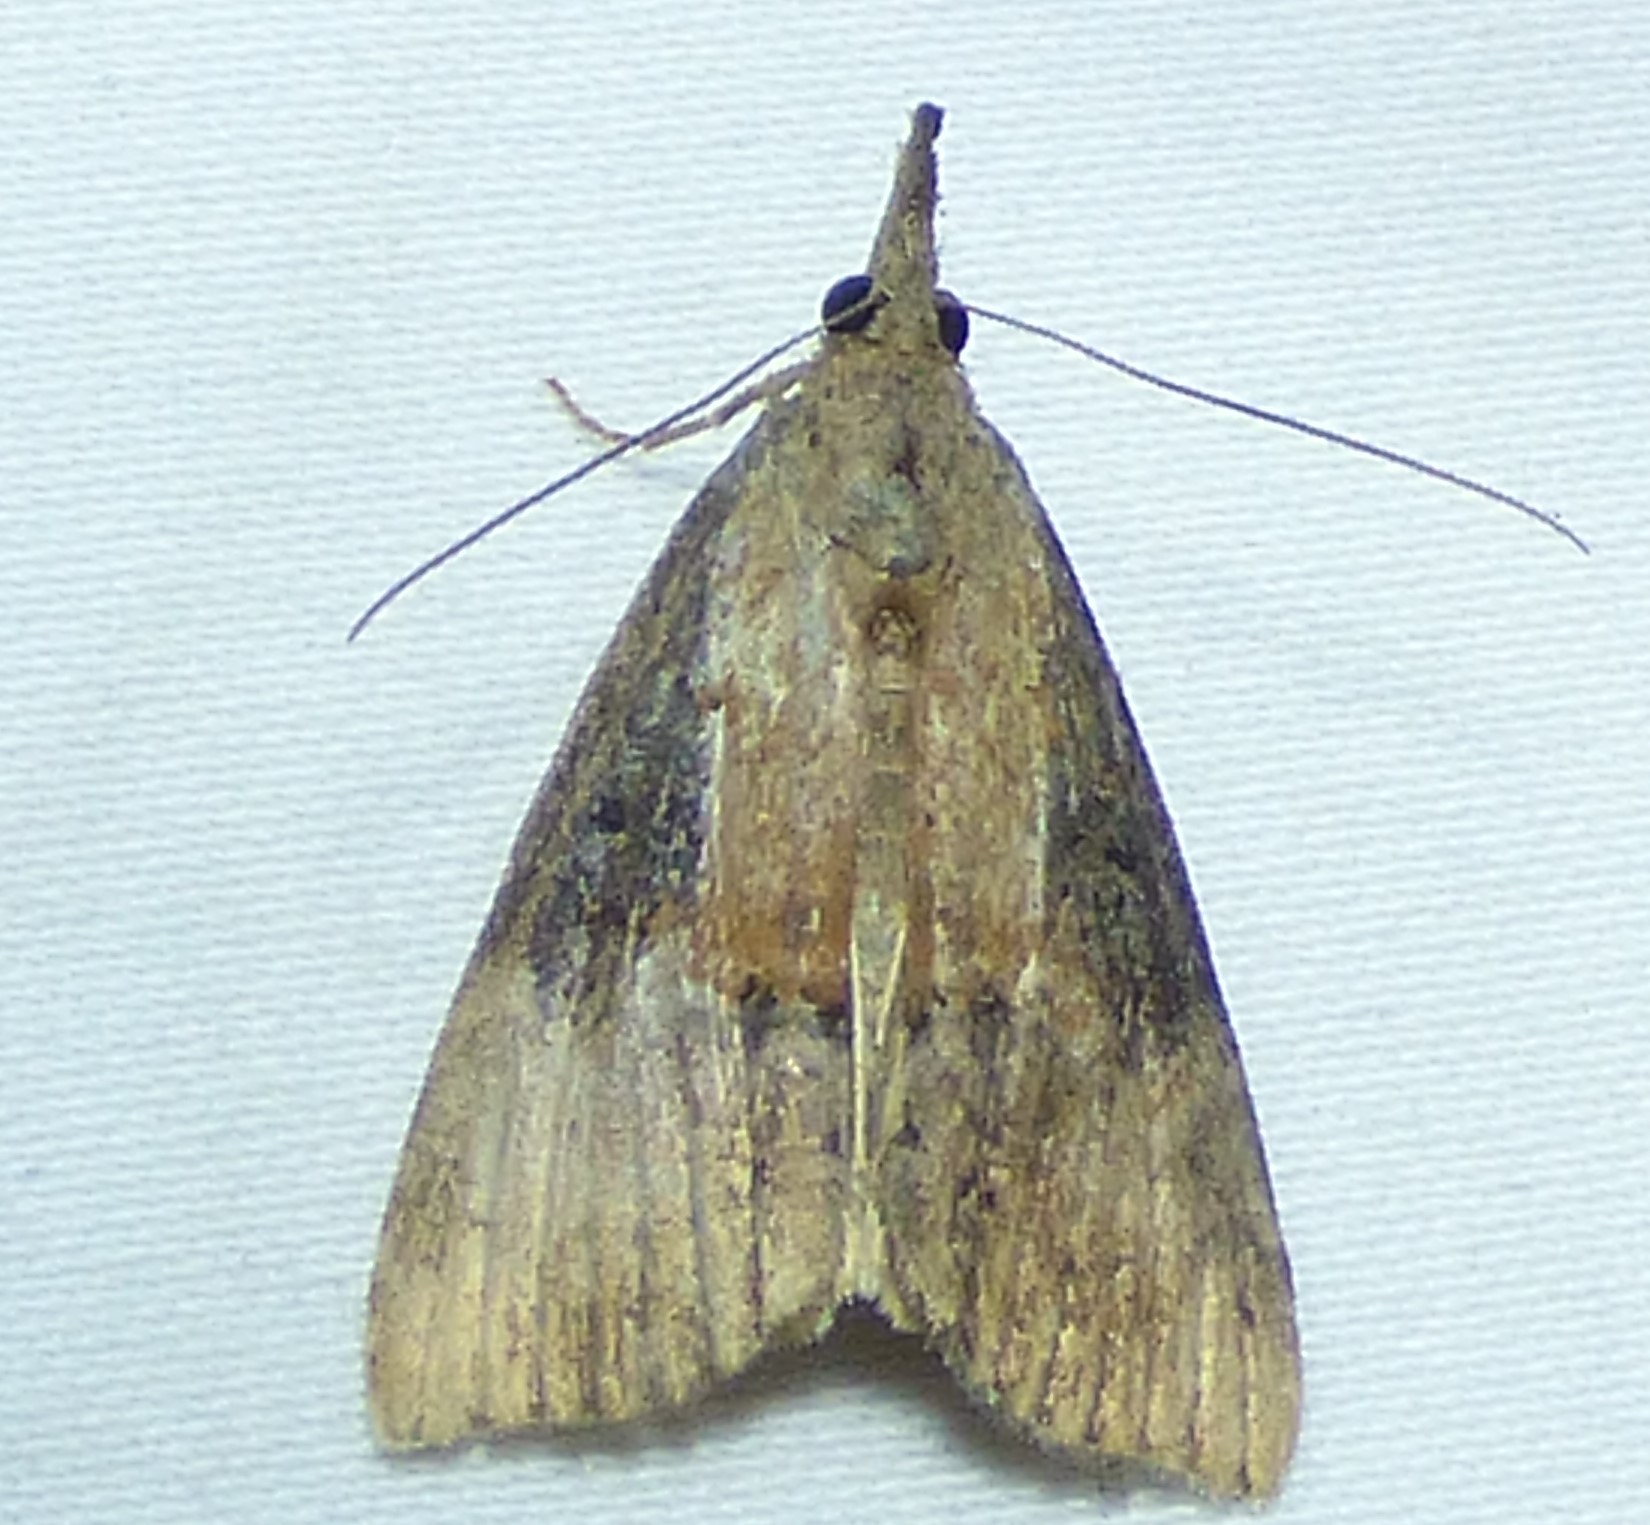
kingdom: Animalia
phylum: Arthropoda
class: Insecta
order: Lepidoptera
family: Erebidae
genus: Hypena
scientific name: Hypena scabra
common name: Green cloverworm
